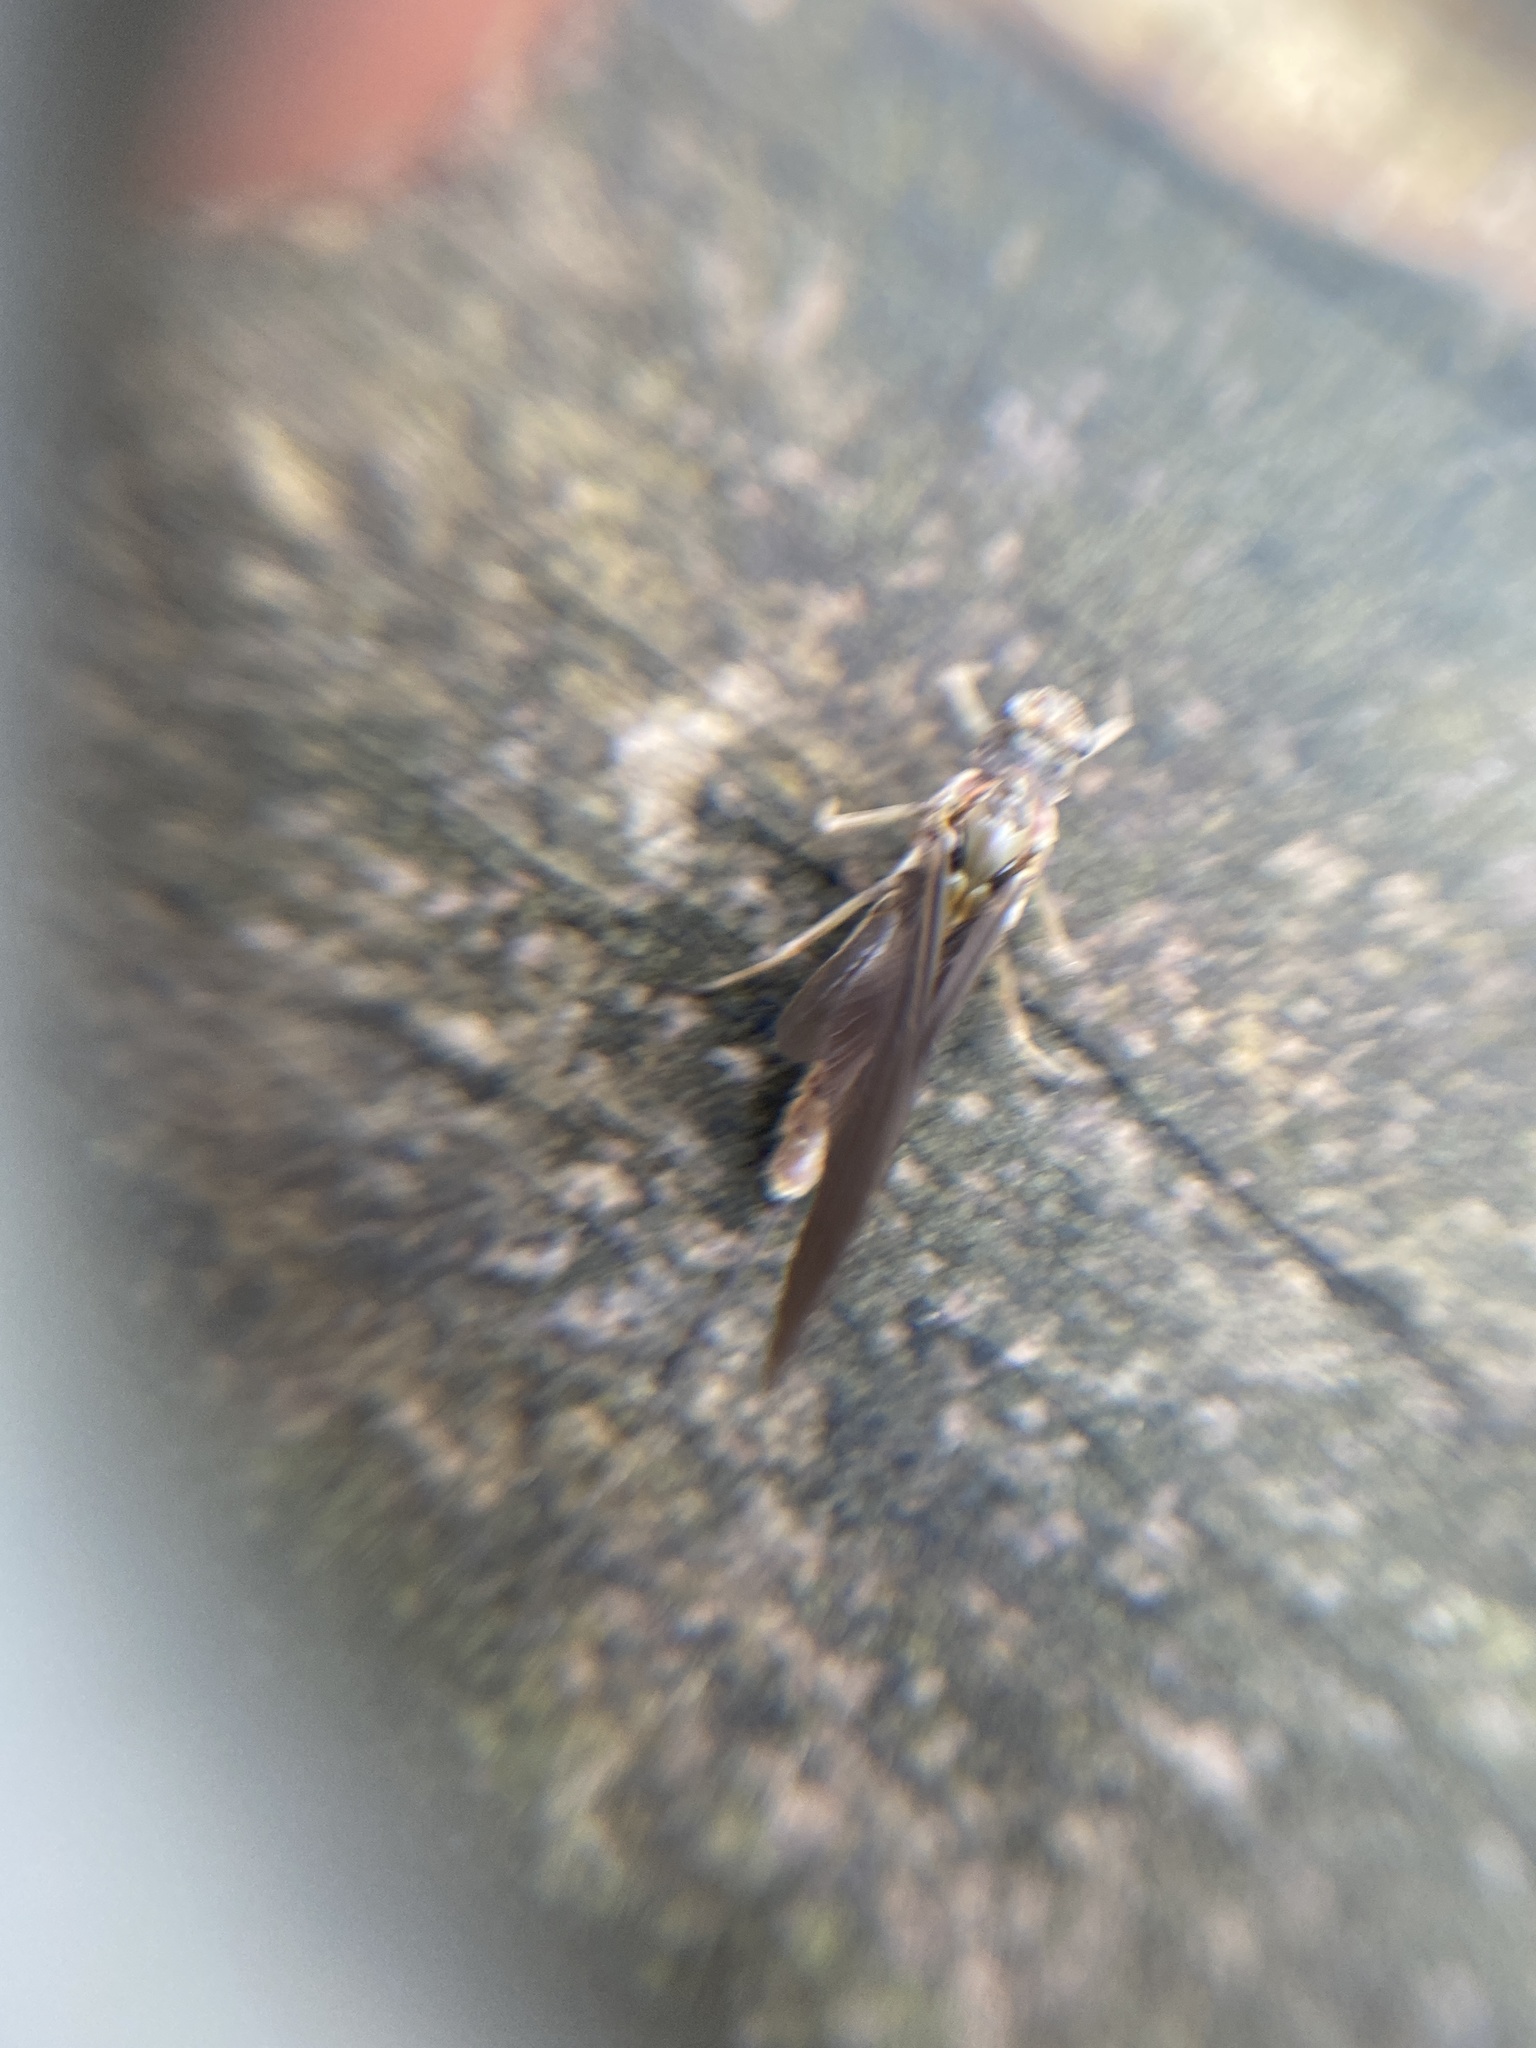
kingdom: Animalia
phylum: Arthropoda
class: Insecta
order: Ephemeroptera
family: Ephemerellidae
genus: Ephemerella
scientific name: Ephemerella subvaria
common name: Dark hendrickson
